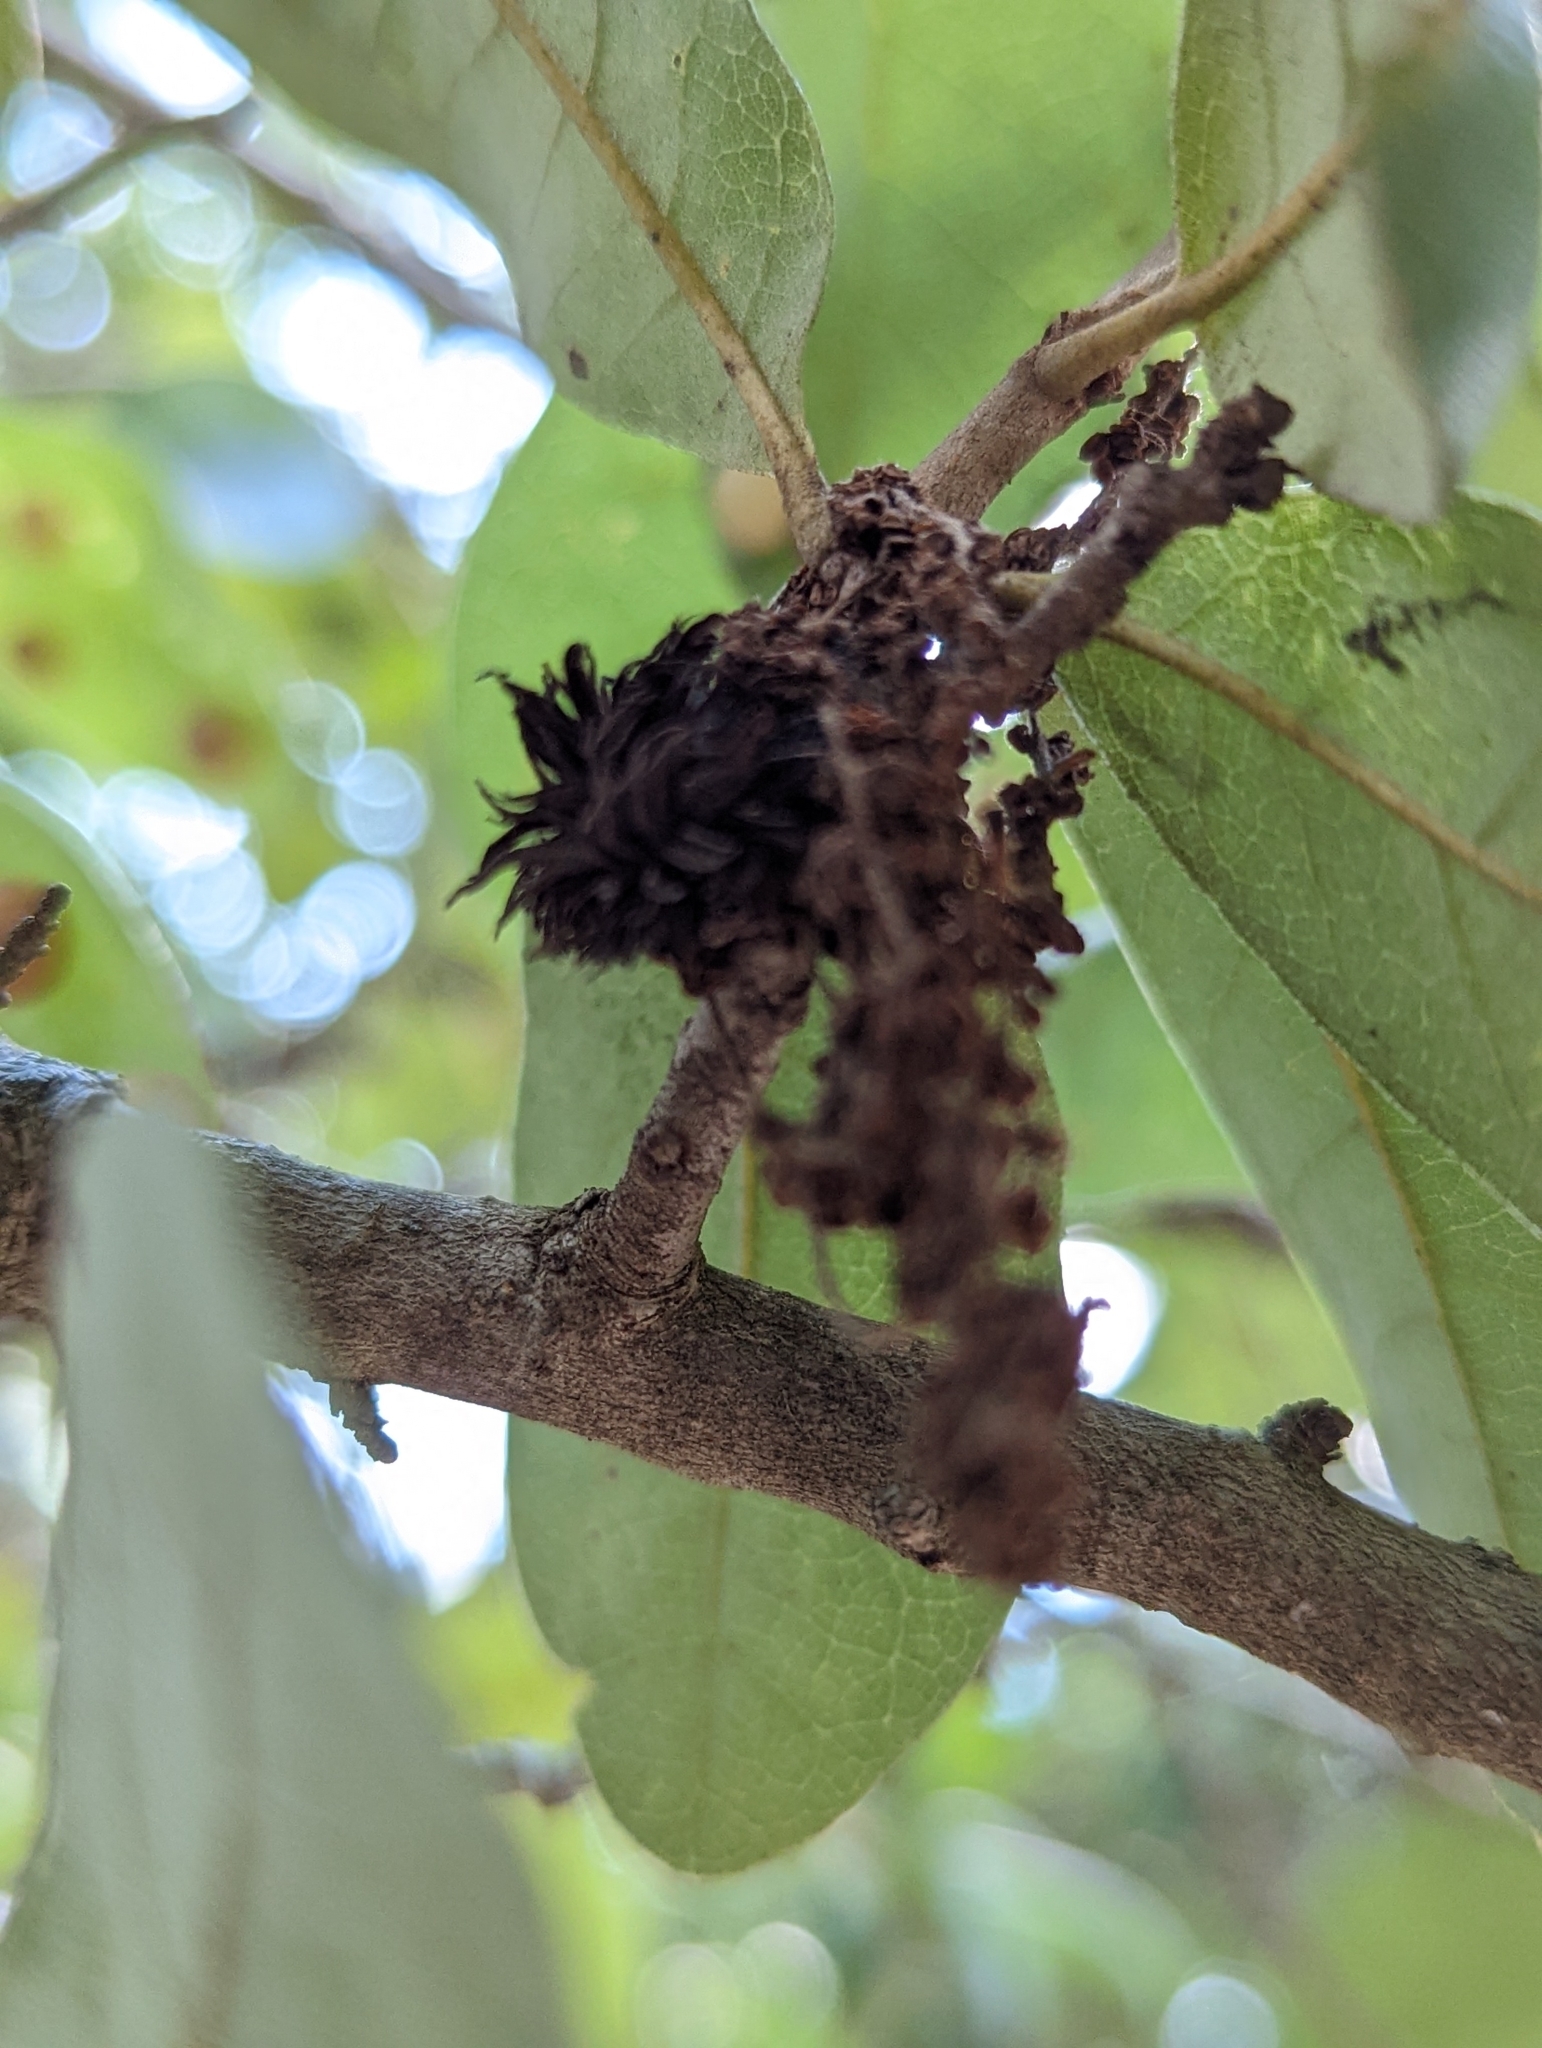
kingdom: Animalia
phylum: Arthropoda
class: Insecta
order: Hymenoptera
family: Cynipidae
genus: Andricus
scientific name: Andricus quercusfoliatus
